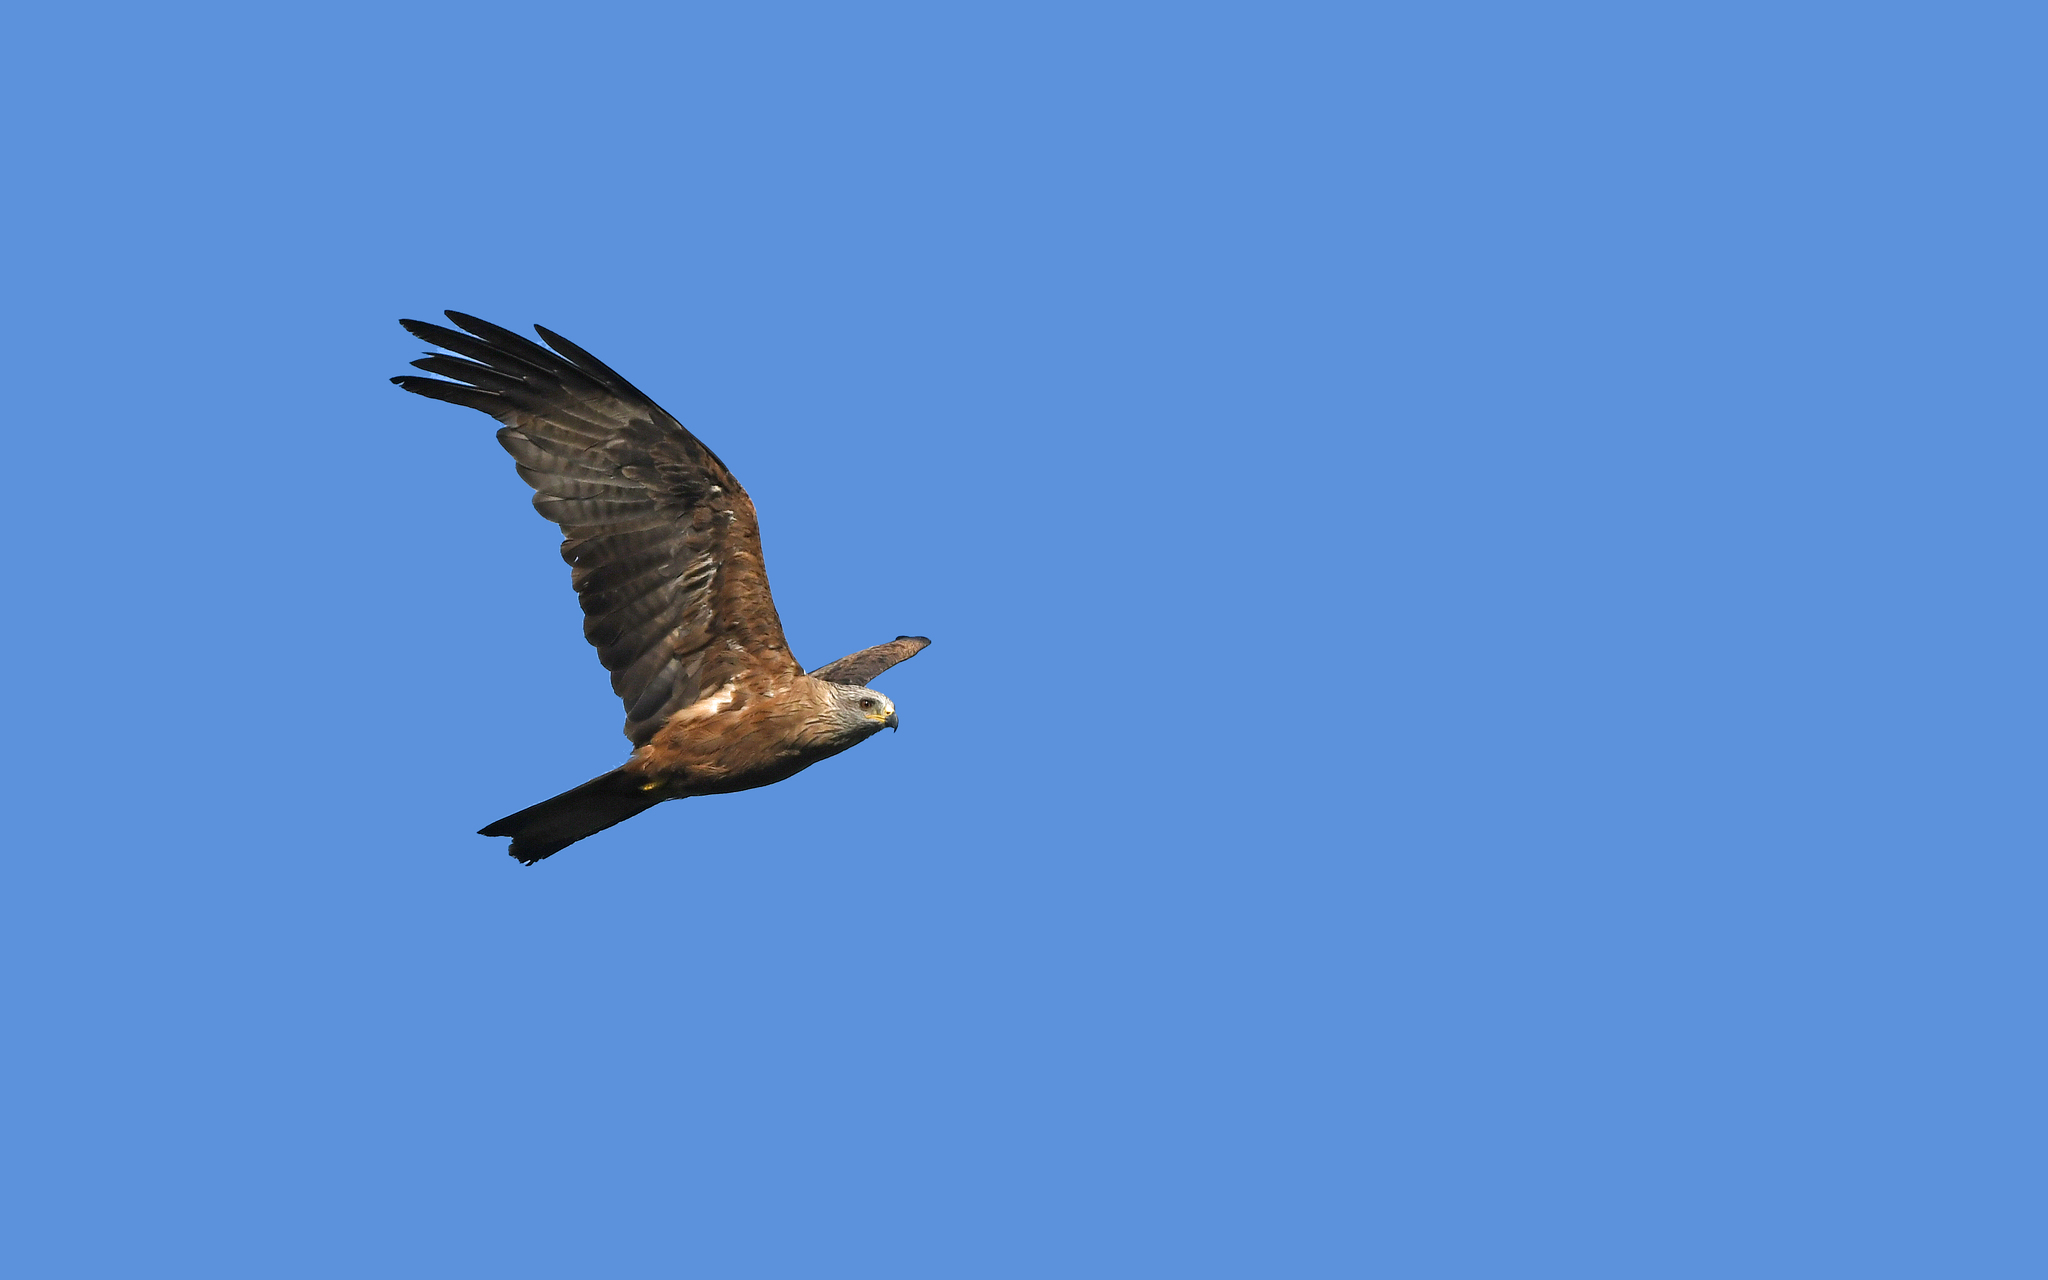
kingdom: Animalia
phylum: Chordata
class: Aves
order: Accipitriformes
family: Accipitridae
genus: Milvus
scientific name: Milvus migrans
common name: Black kite
